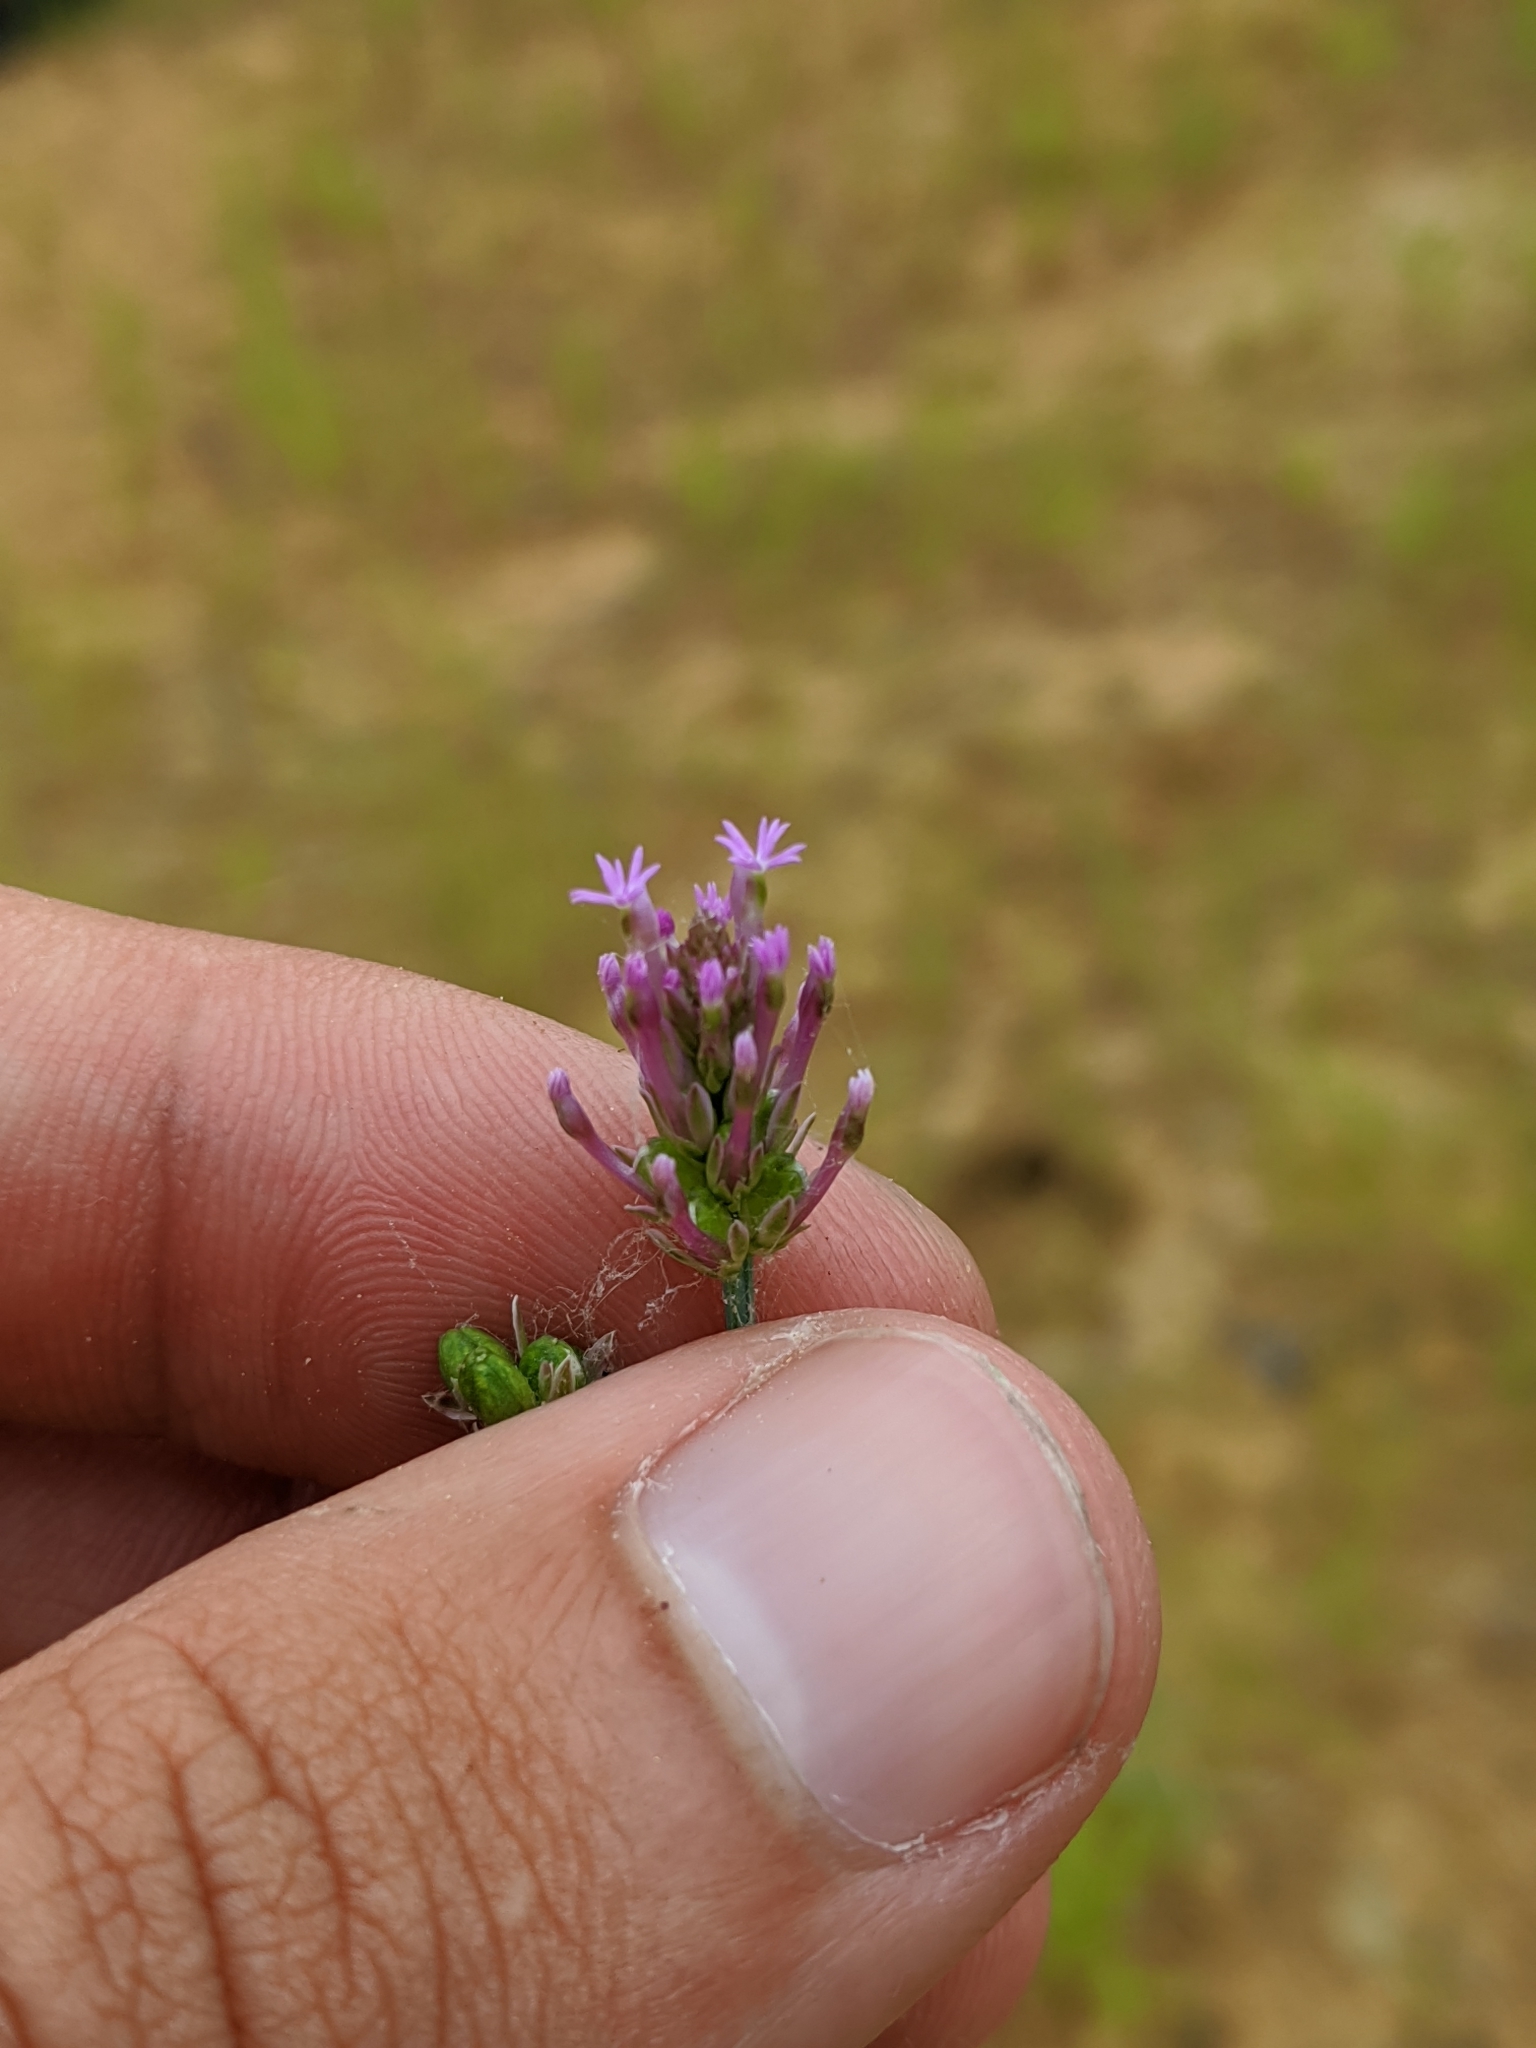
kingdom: Plantae
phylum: Tracheophyta
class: Magnoliopsida
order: Fabales
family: Polygalaceae
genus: Polygala
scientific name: Polygala incarnata
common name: Pink milkwort
